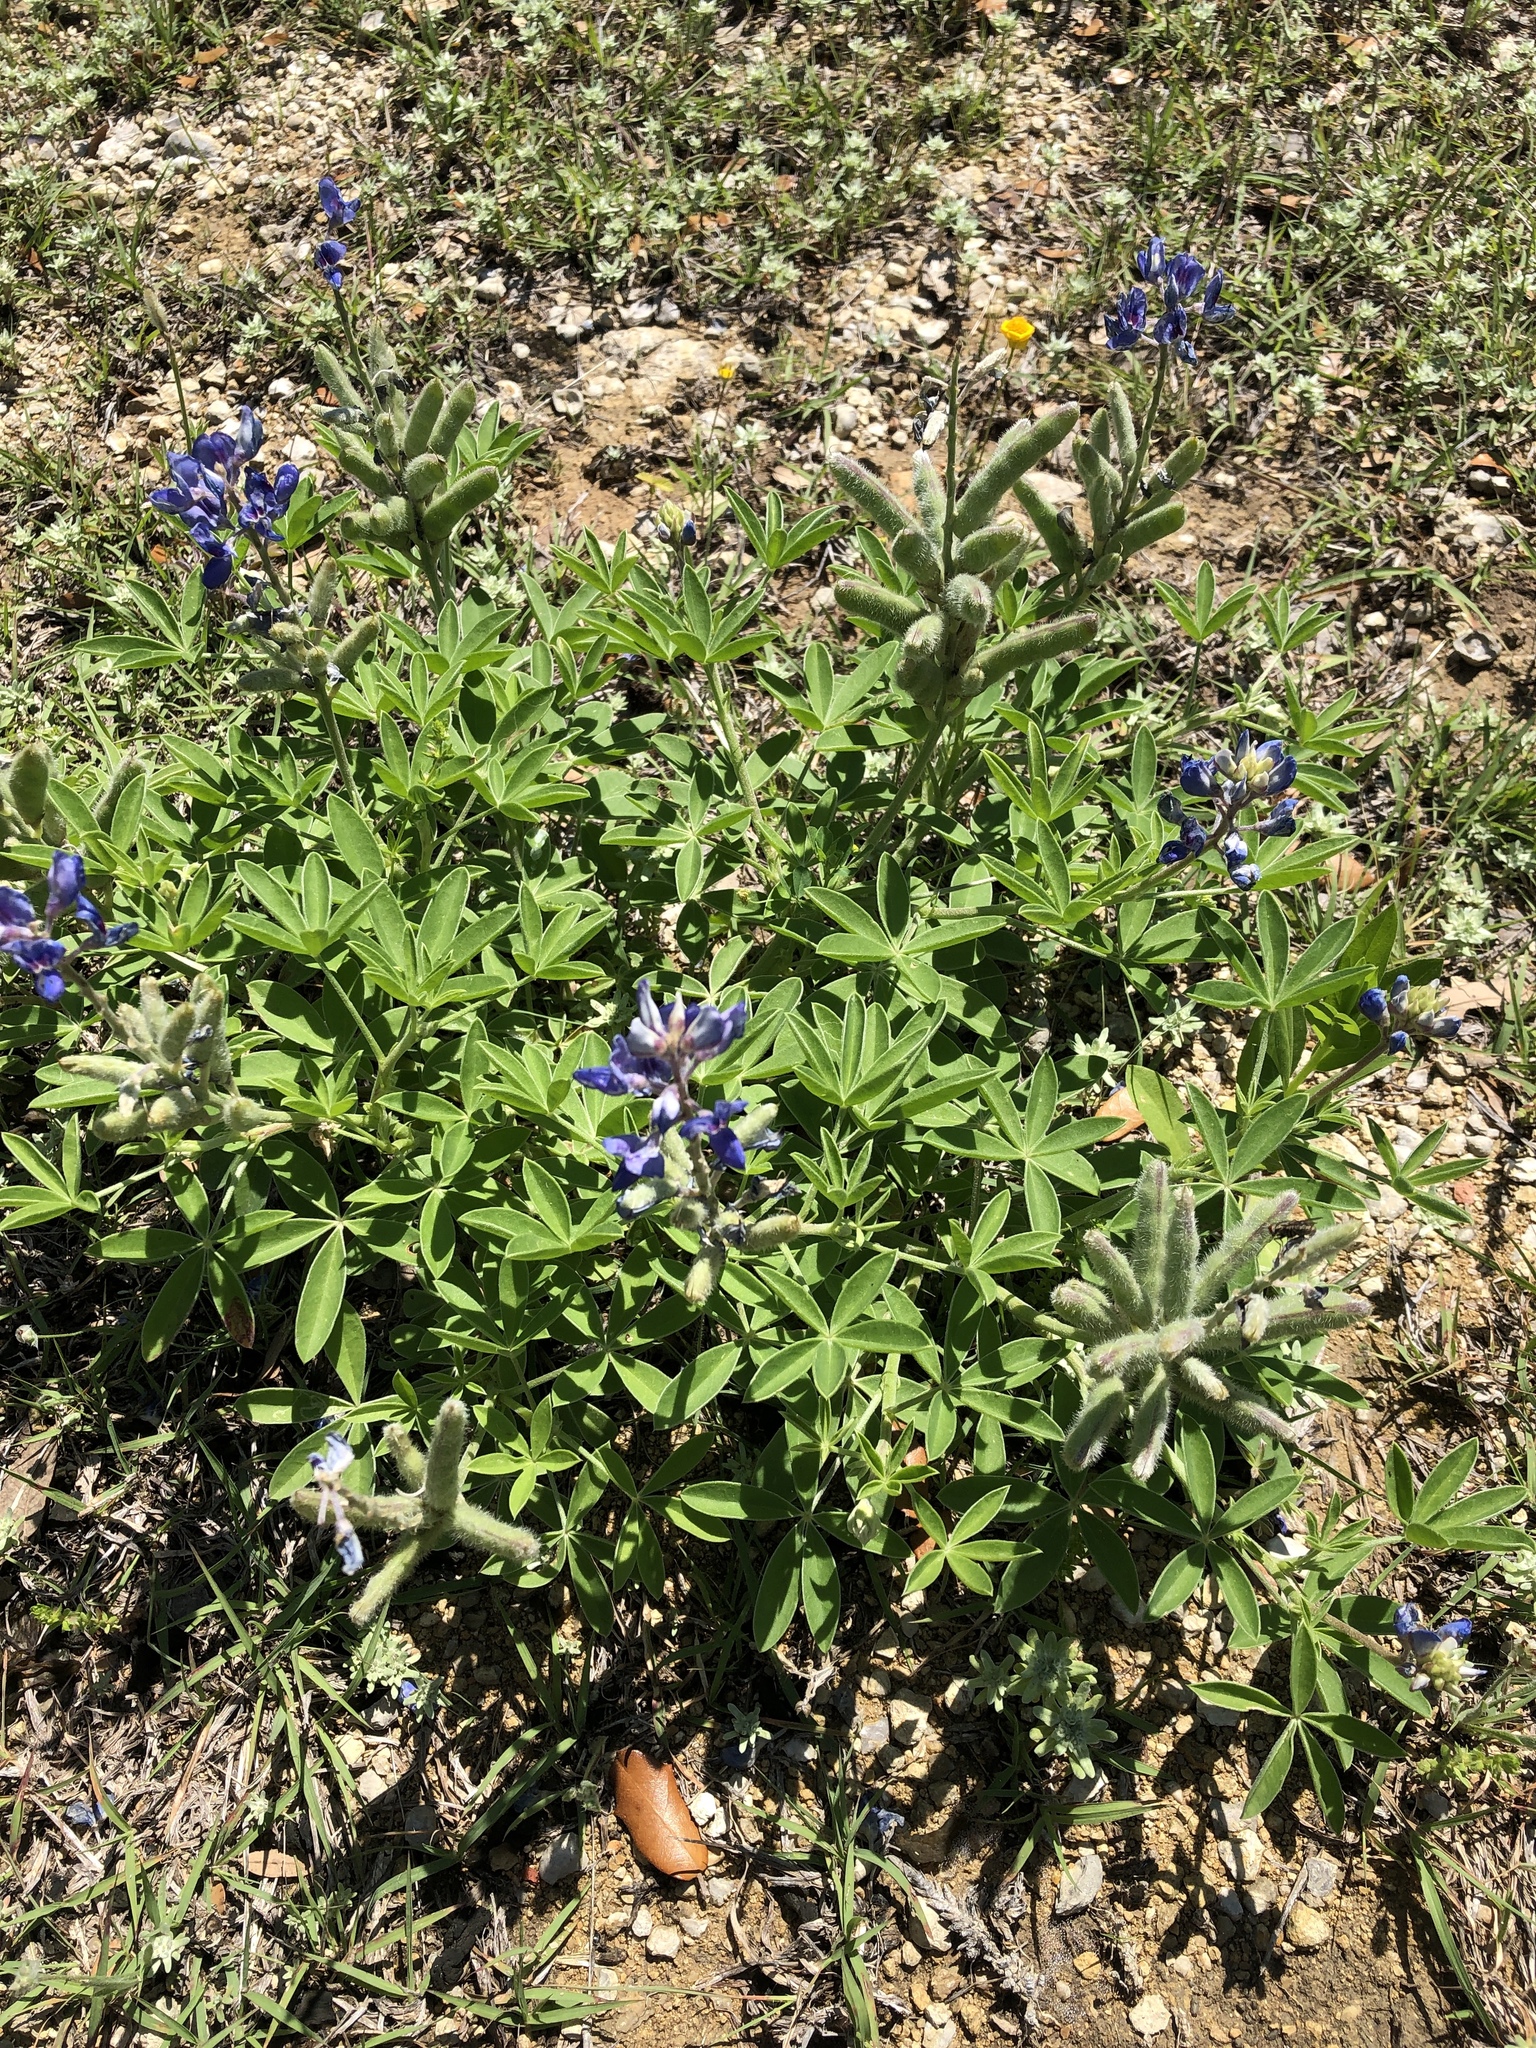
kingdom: Plantae
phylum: Tracheophyta
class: Magnoliopsida
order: Fabales
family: Fabaceae
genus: Lupinus
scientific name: Lupinus texensis
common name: Texas bluebonnet
